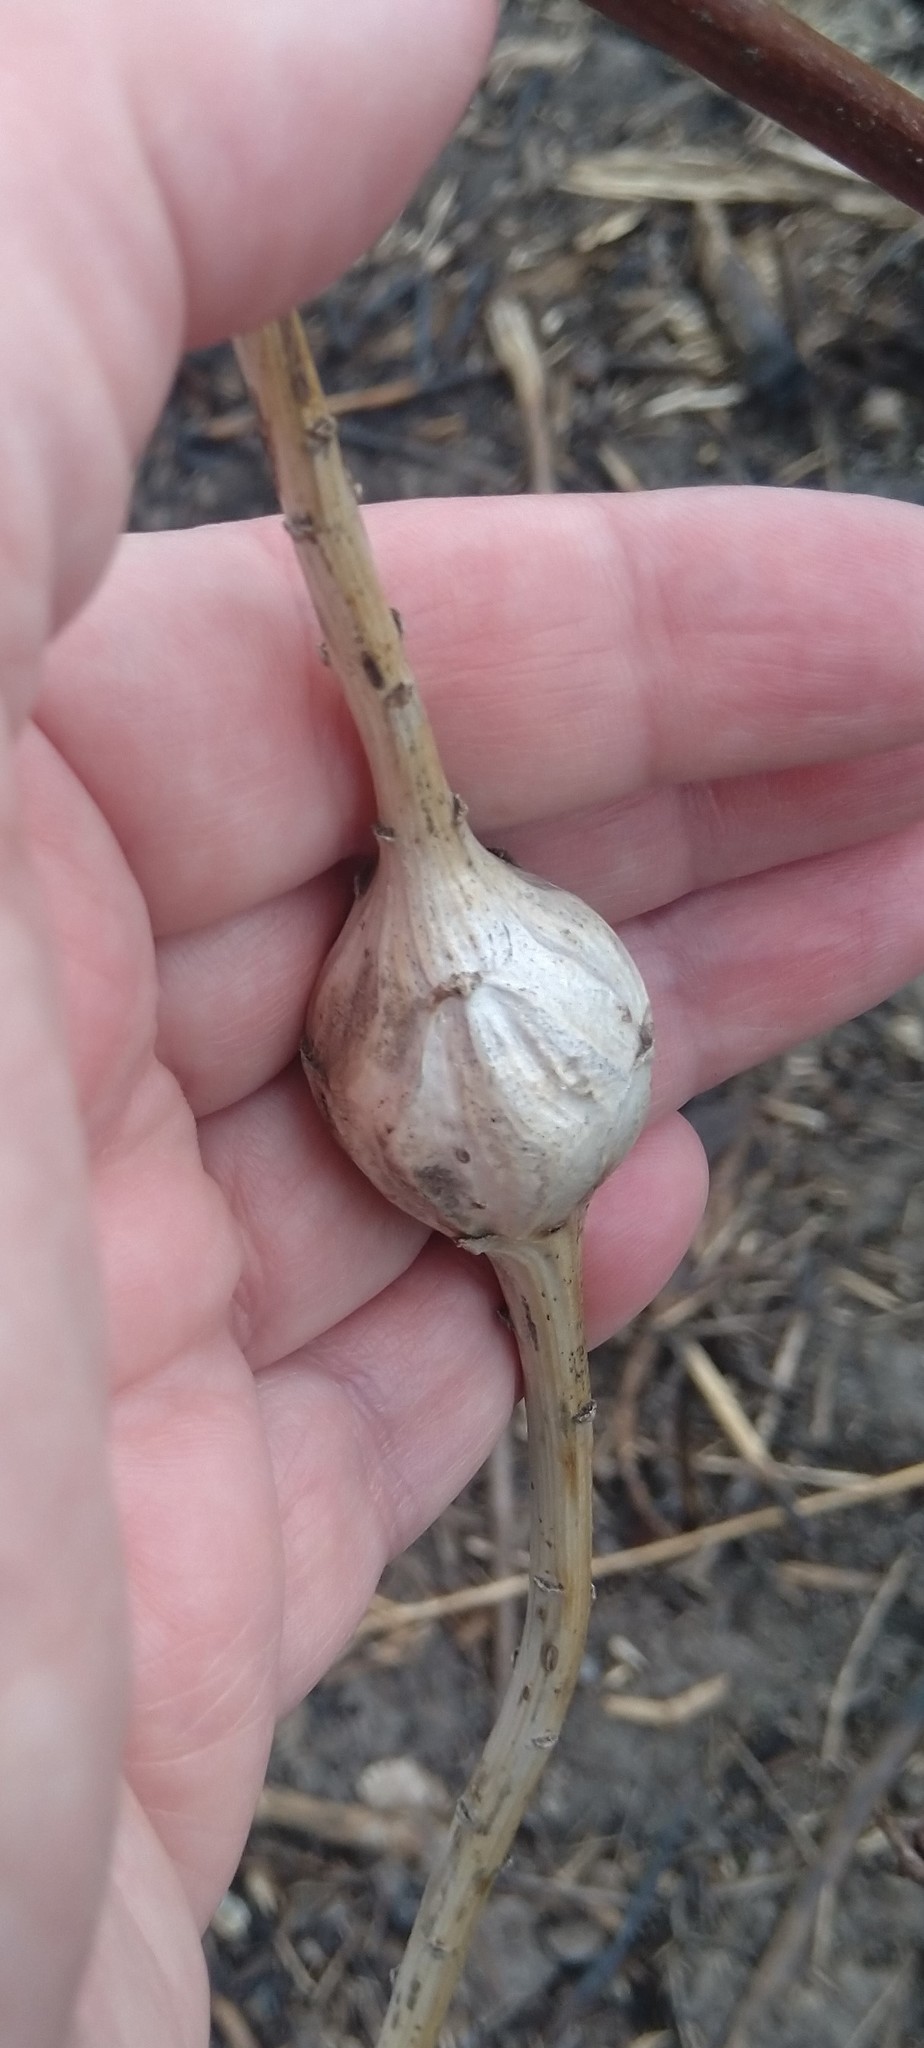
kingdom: Animalia
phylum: Arthropoda
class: Insecta
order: Diptera
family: Tephritidae
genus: Eurosta
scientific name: Eurosta solidaginis
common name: Goldenrod gall fly
